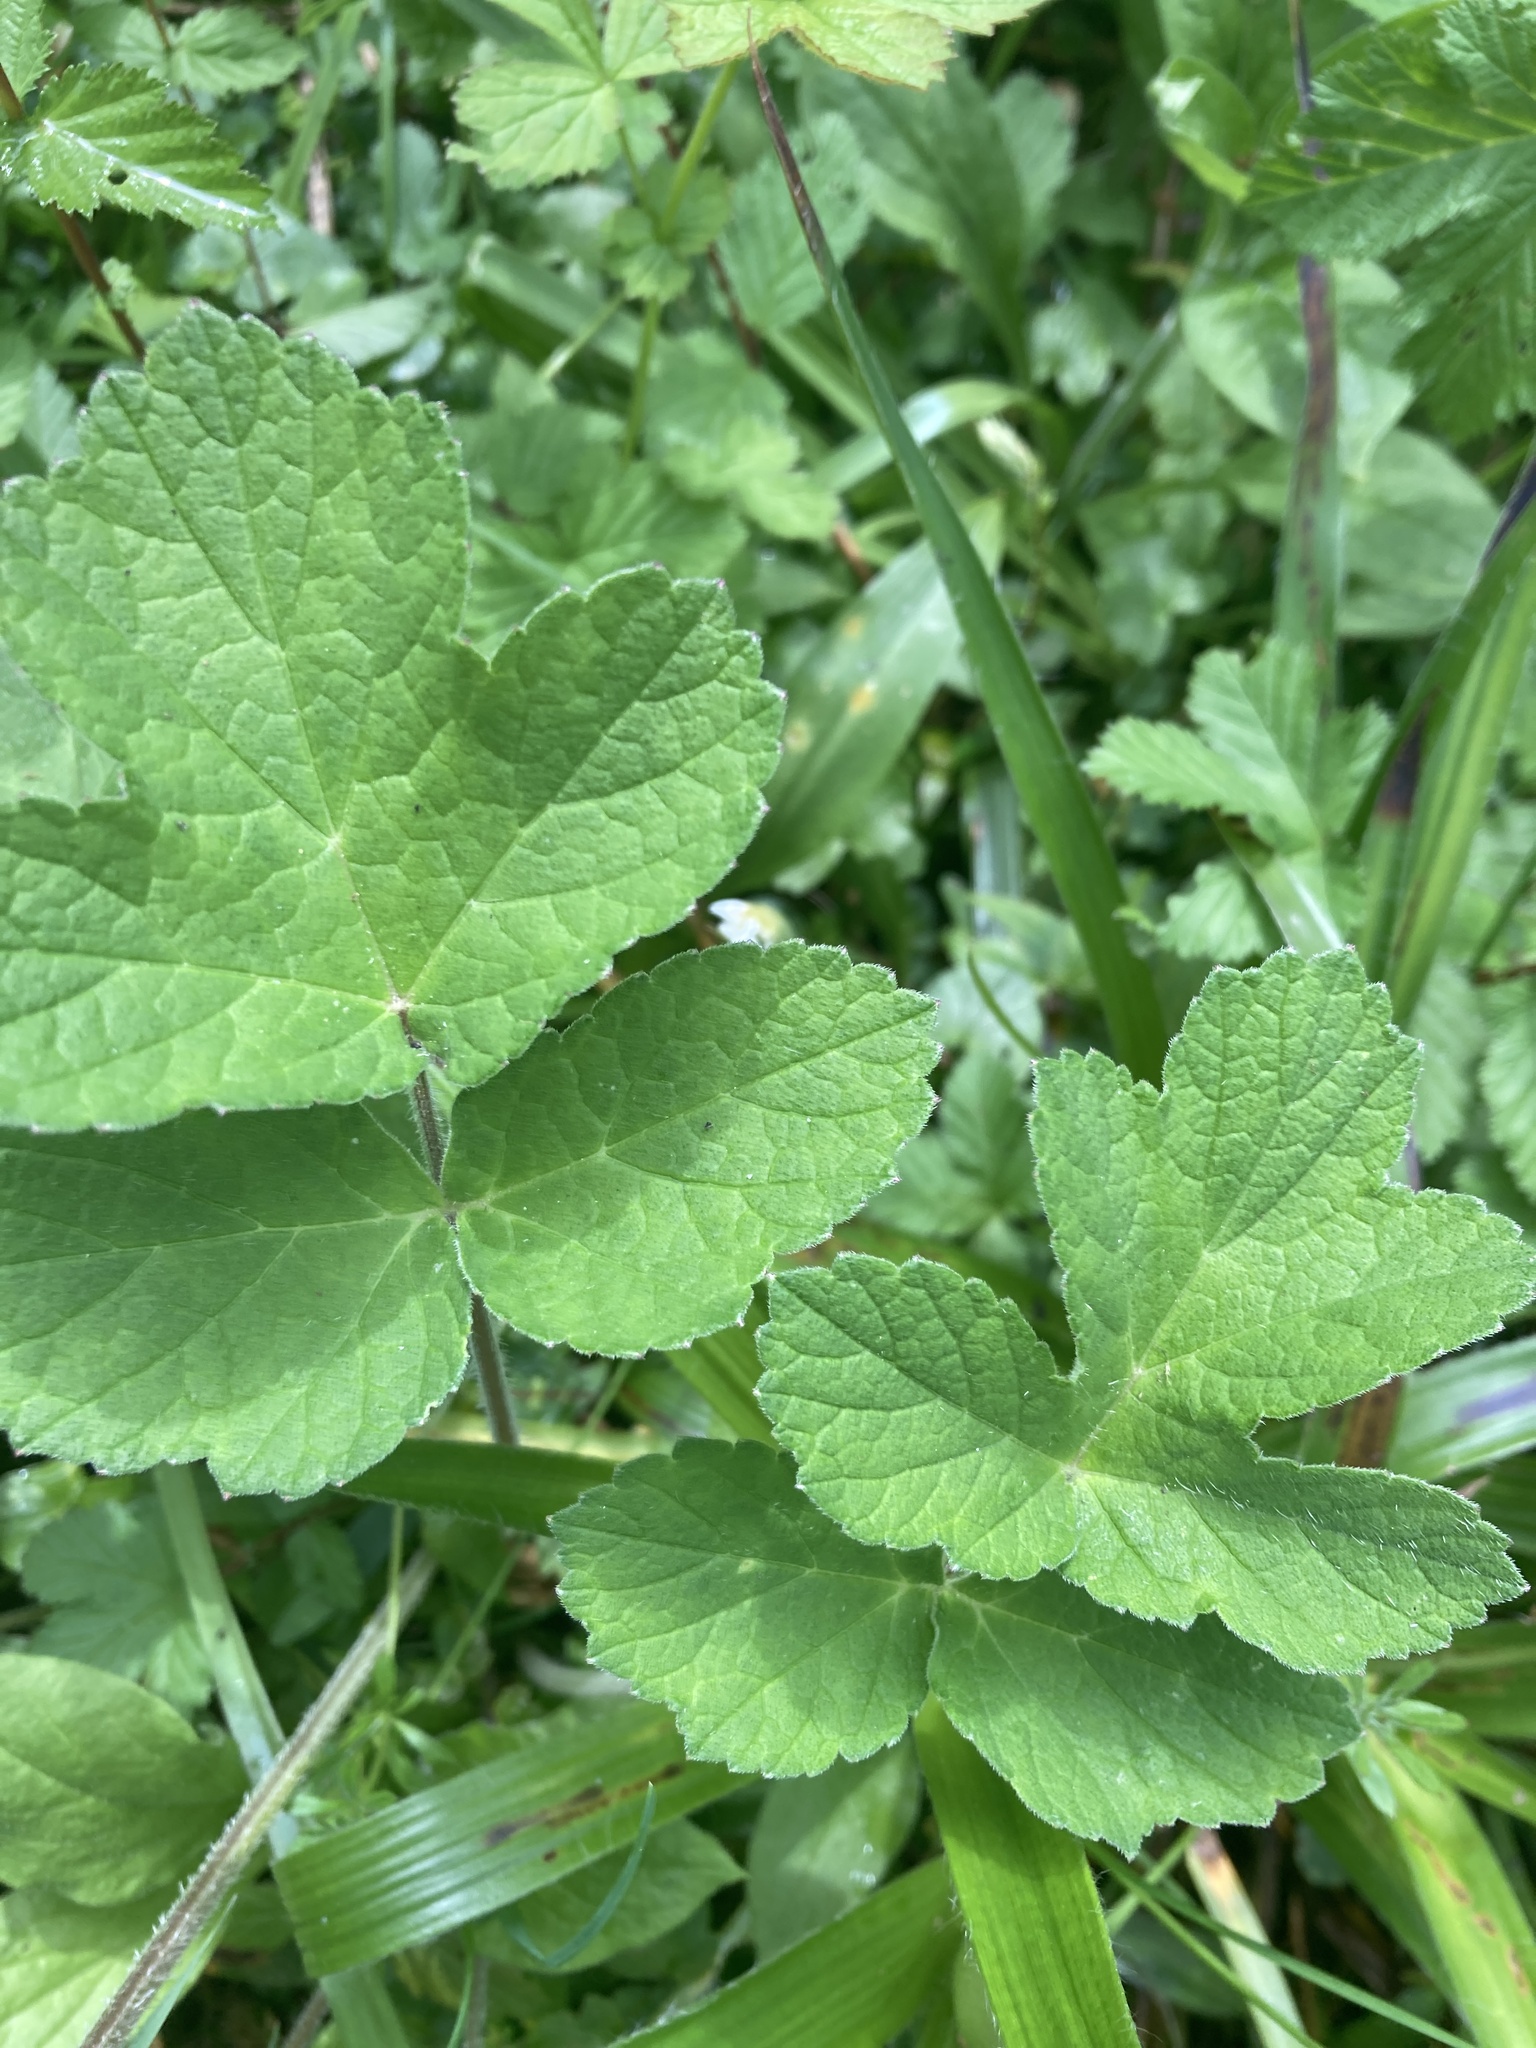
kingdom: Plantae
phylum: Tracheophyta
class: Magnoliopsida
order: Apiales
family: Apiaceae
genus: Heracleum
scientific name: Heracleum sphondylium
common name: Hogweed
